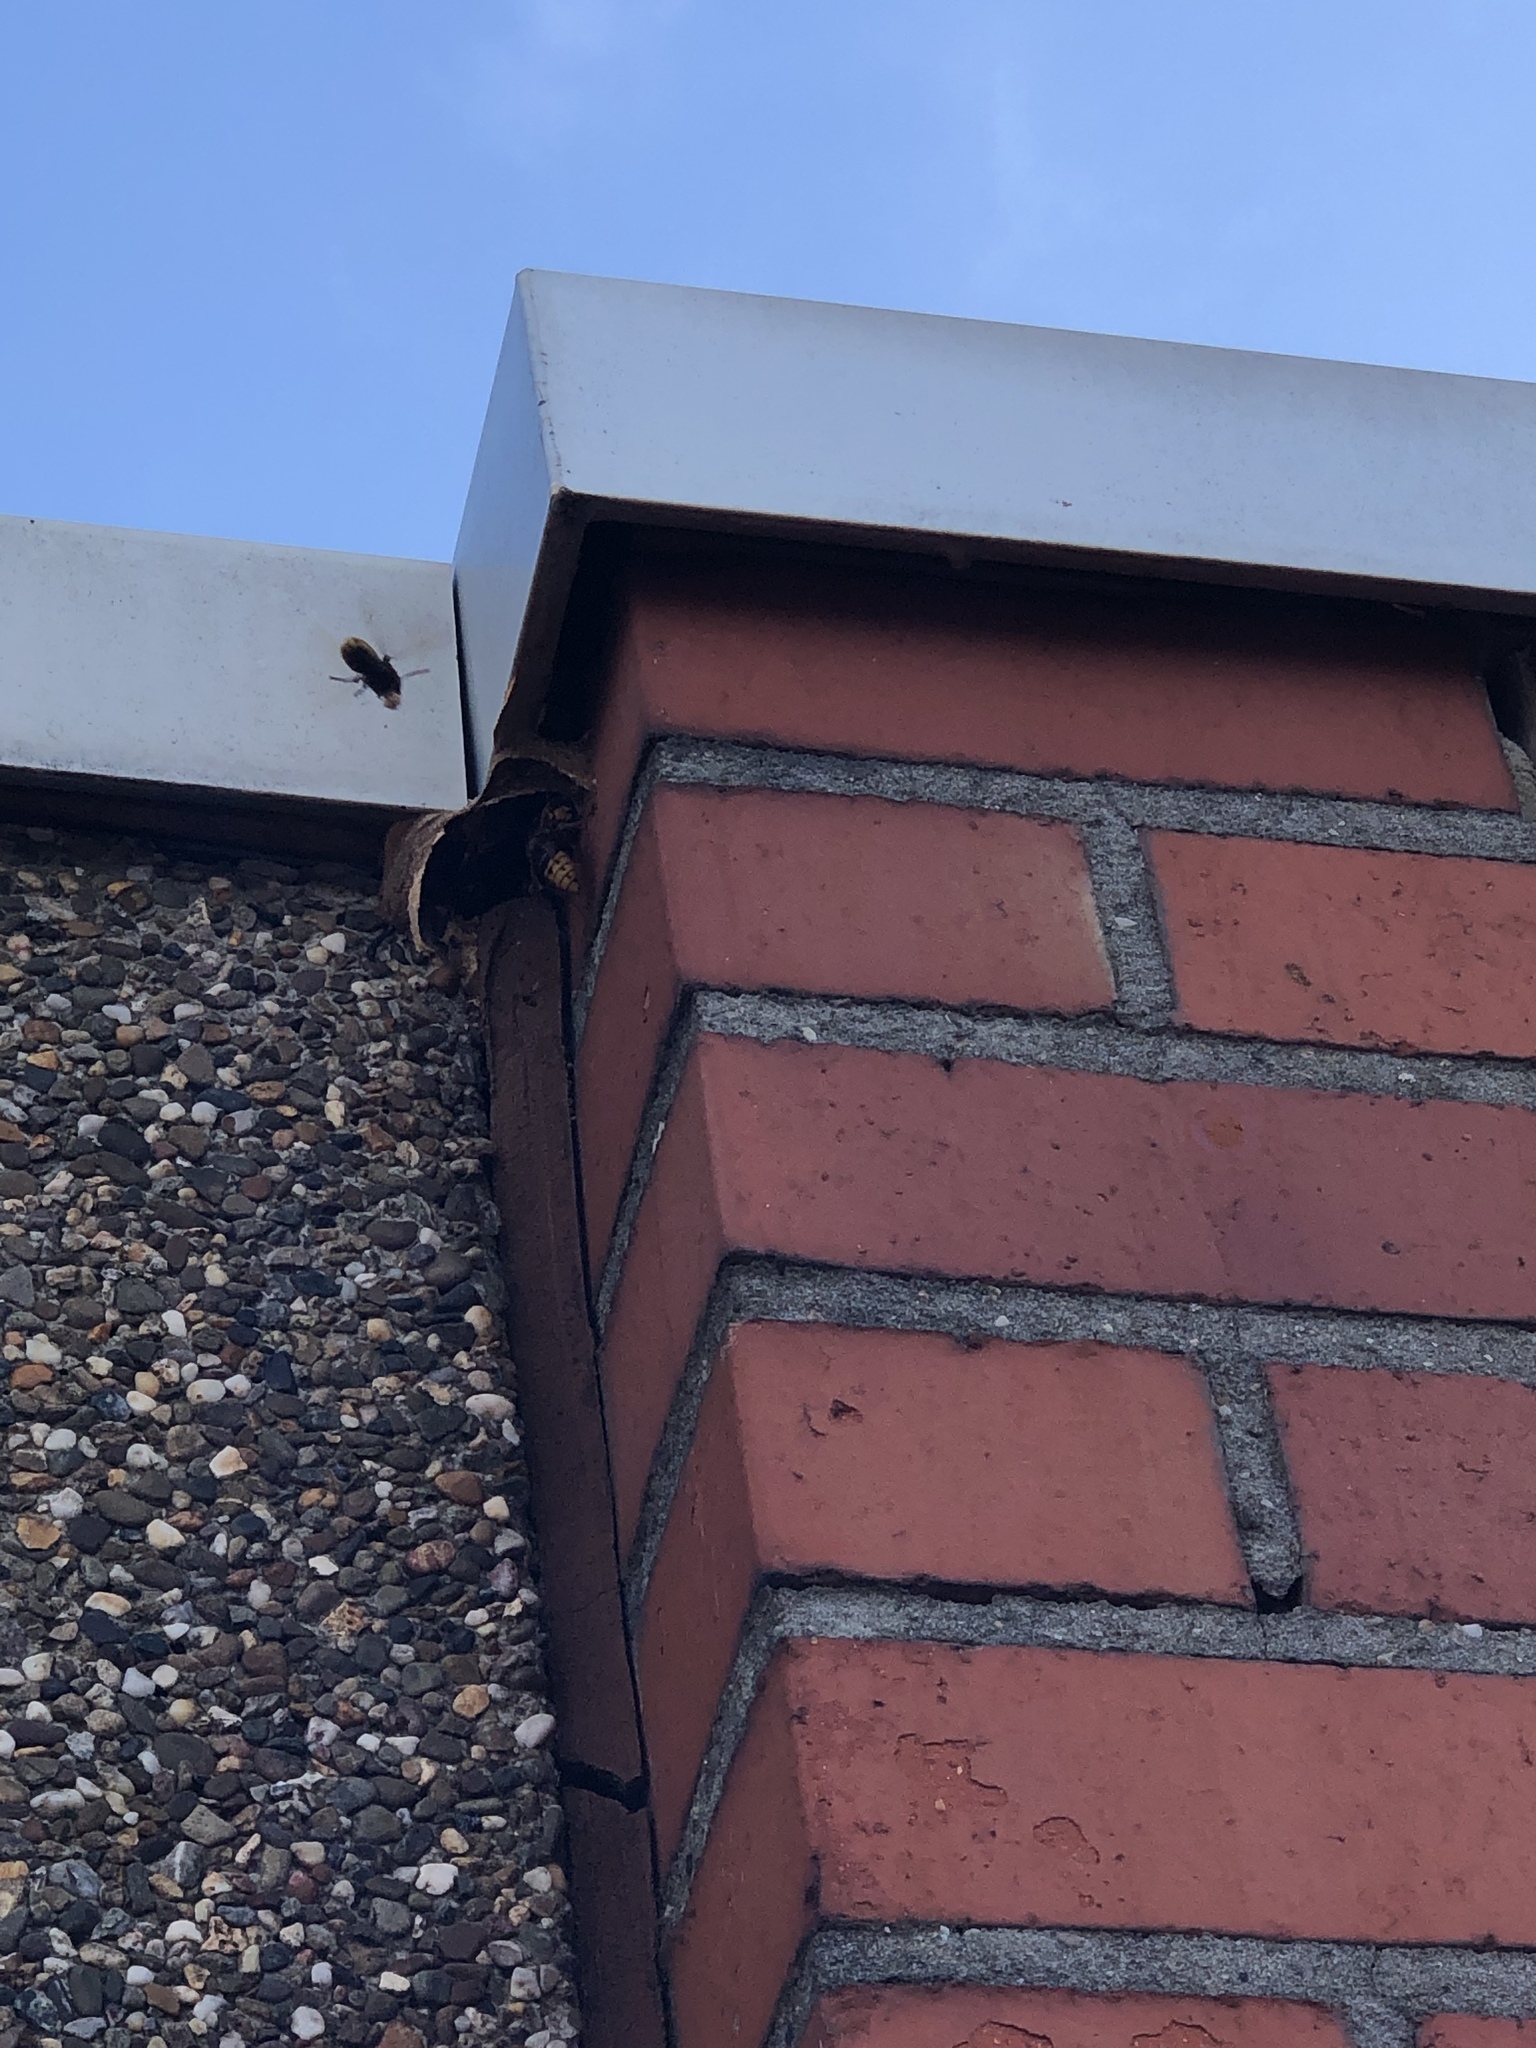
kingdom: Animalia
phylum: Arthropoda
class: Insecta
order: Hymenoptera
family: Vespidae
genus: Vespa
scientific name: Vespa crabro
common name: Hornet
